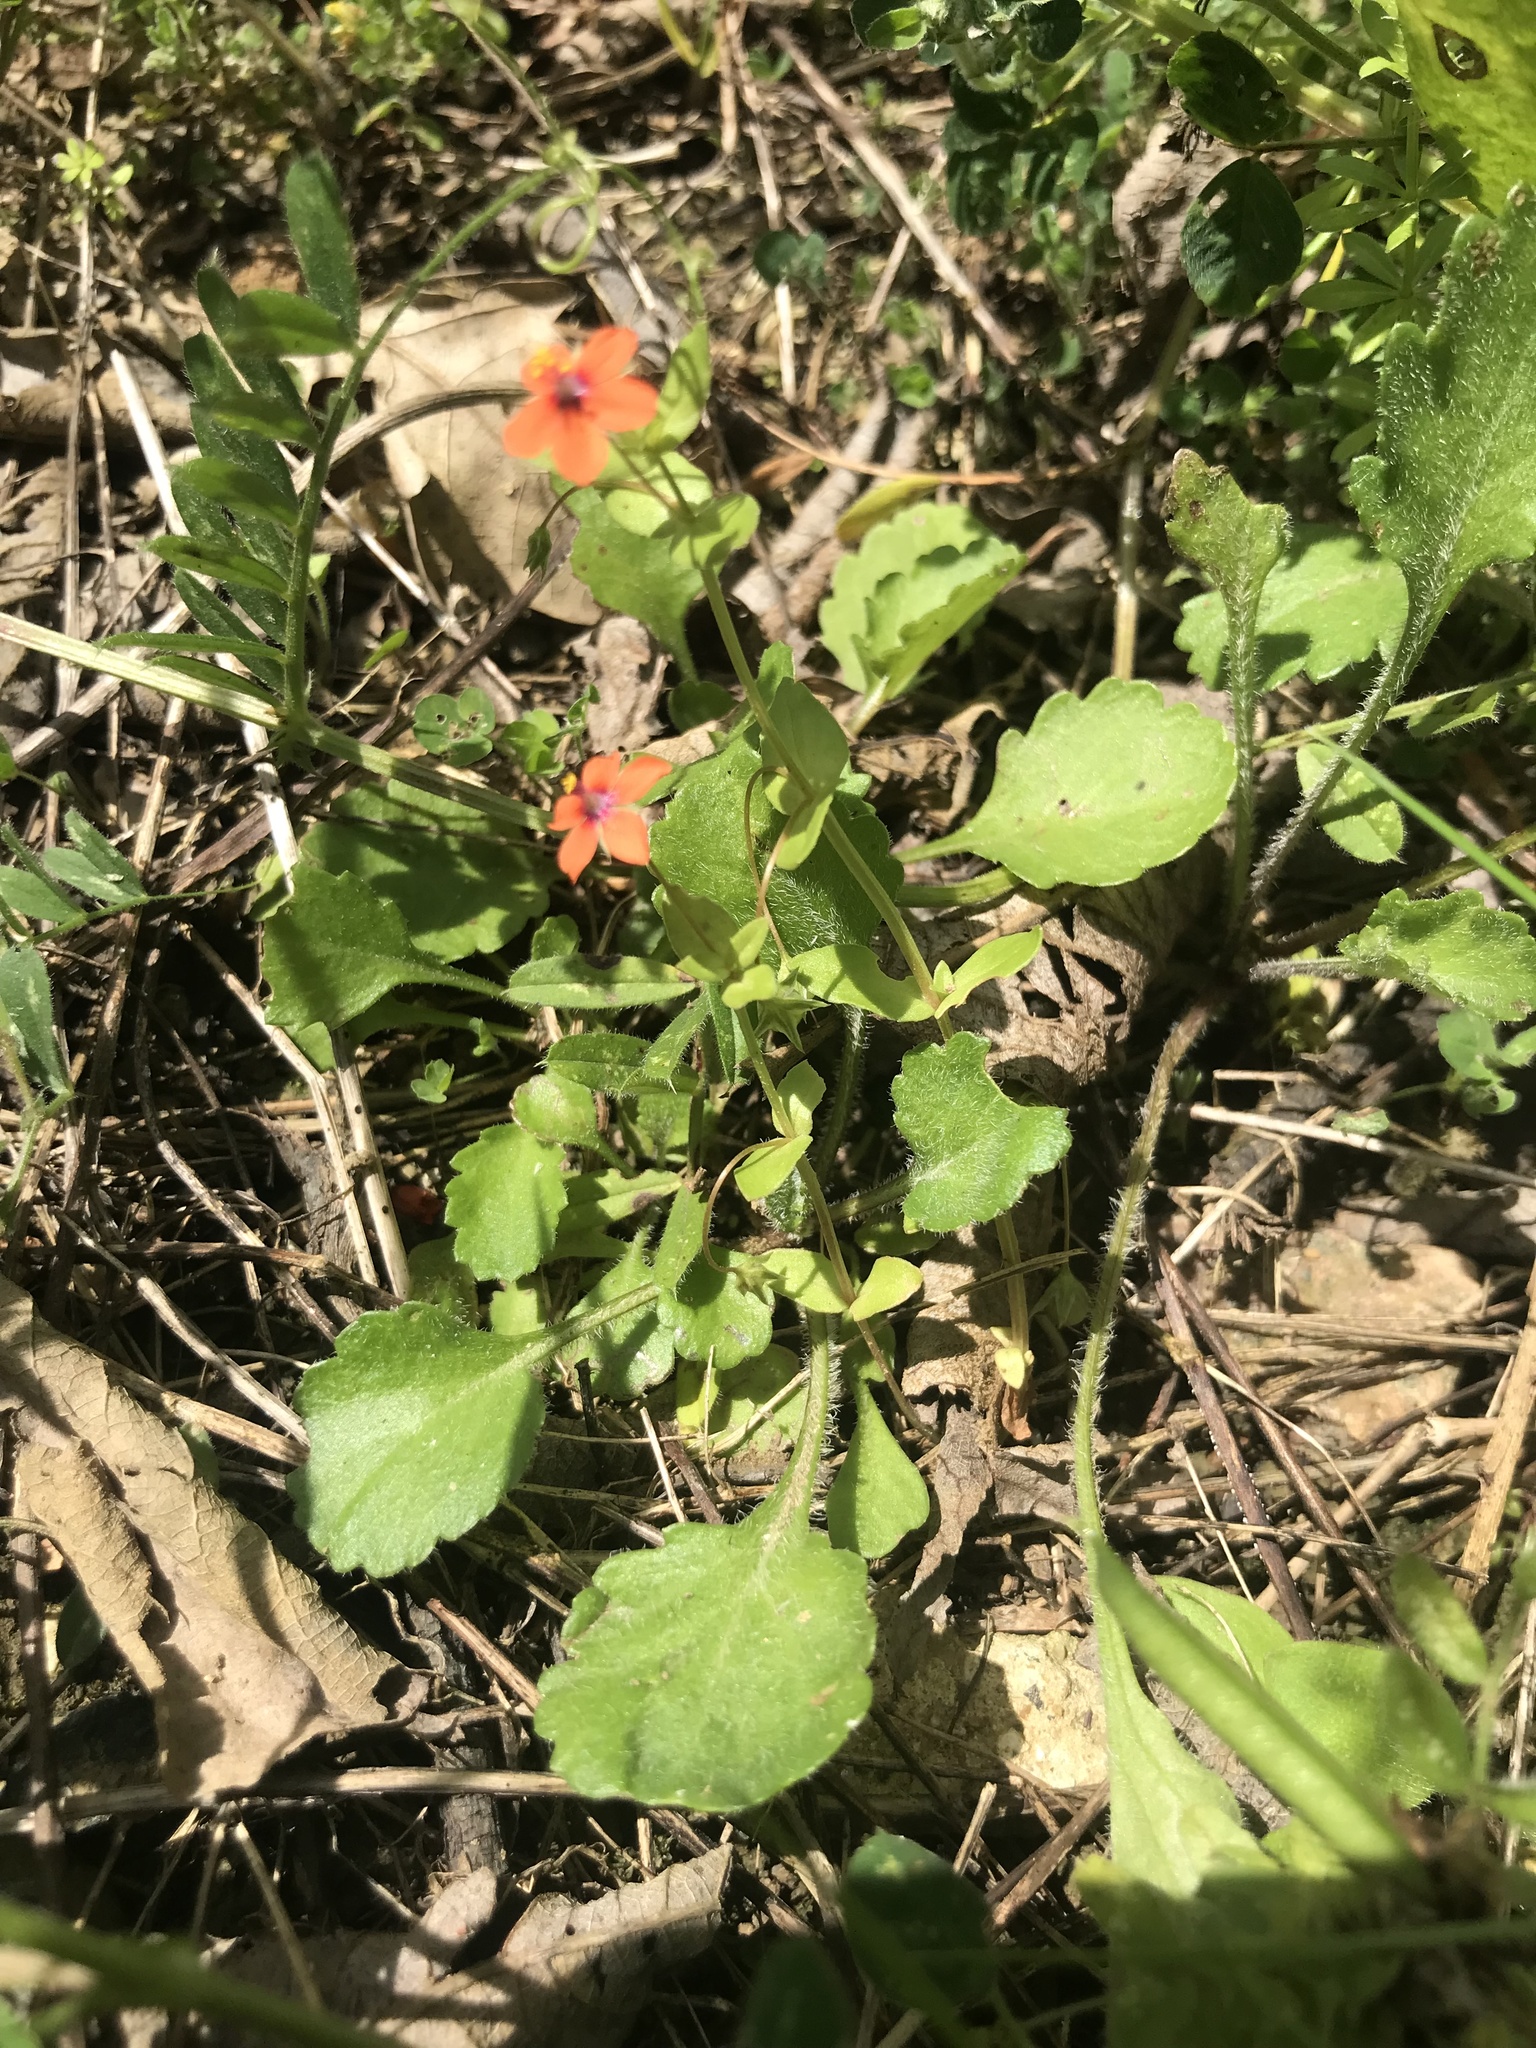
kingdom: Plantae
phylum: Tracheophyta
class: Magnoliopsida
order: Ericales
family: Primulaceae
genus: Lysimachia
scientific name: Lysimachia arvensis
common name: Scarlet pimpernel
